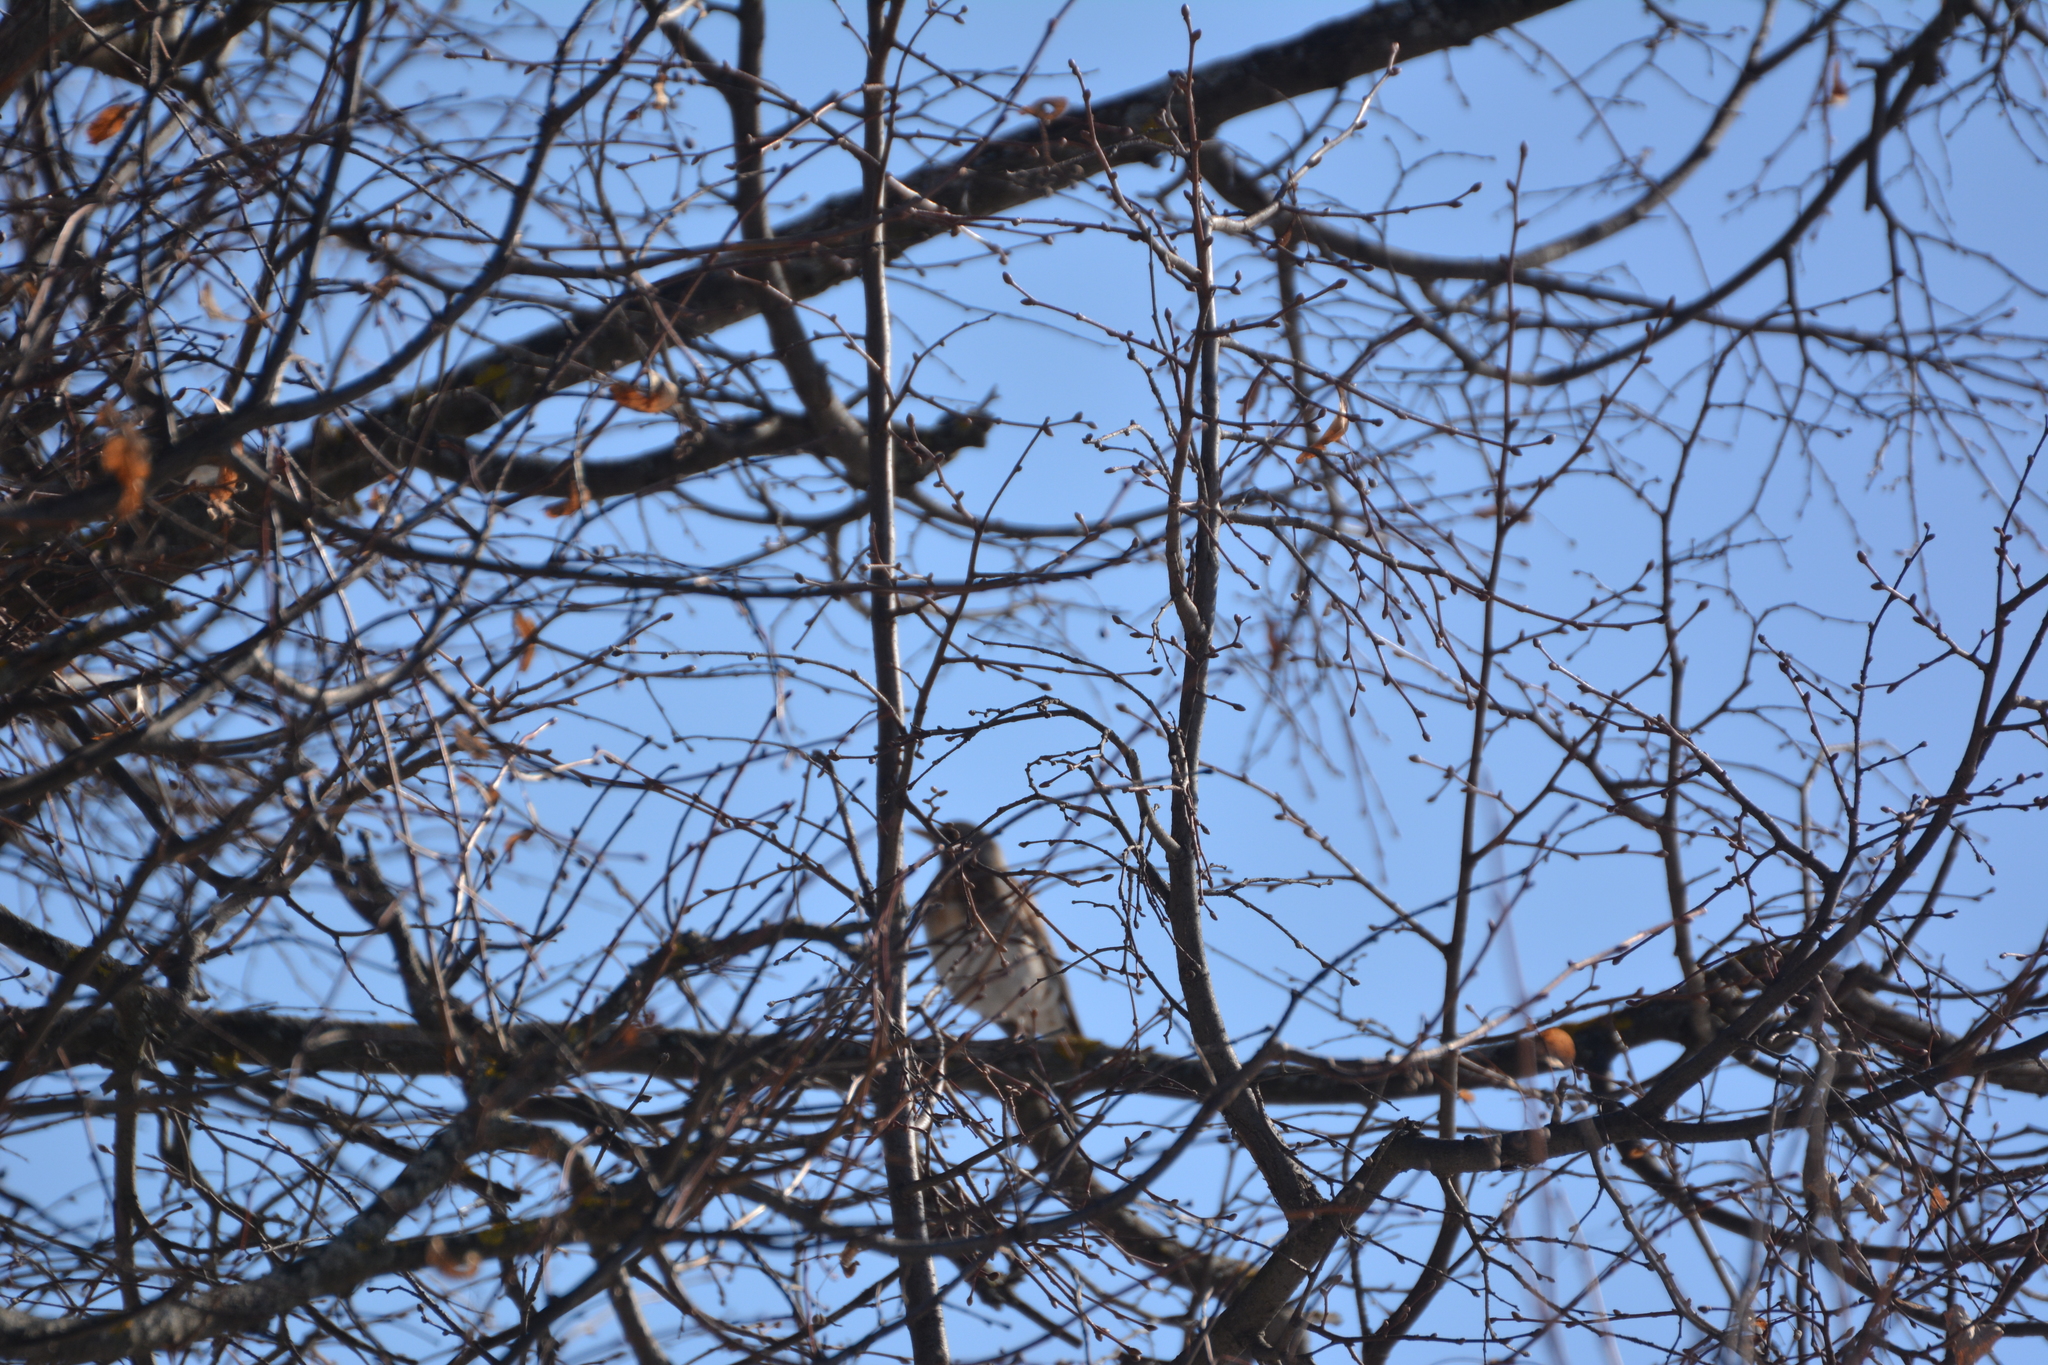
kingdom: Animalia
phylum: Chordata
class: Aves
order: Passeriformes
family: Turdidae
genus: Turdus
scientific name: Turdus pilaris
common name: Fieldfare
